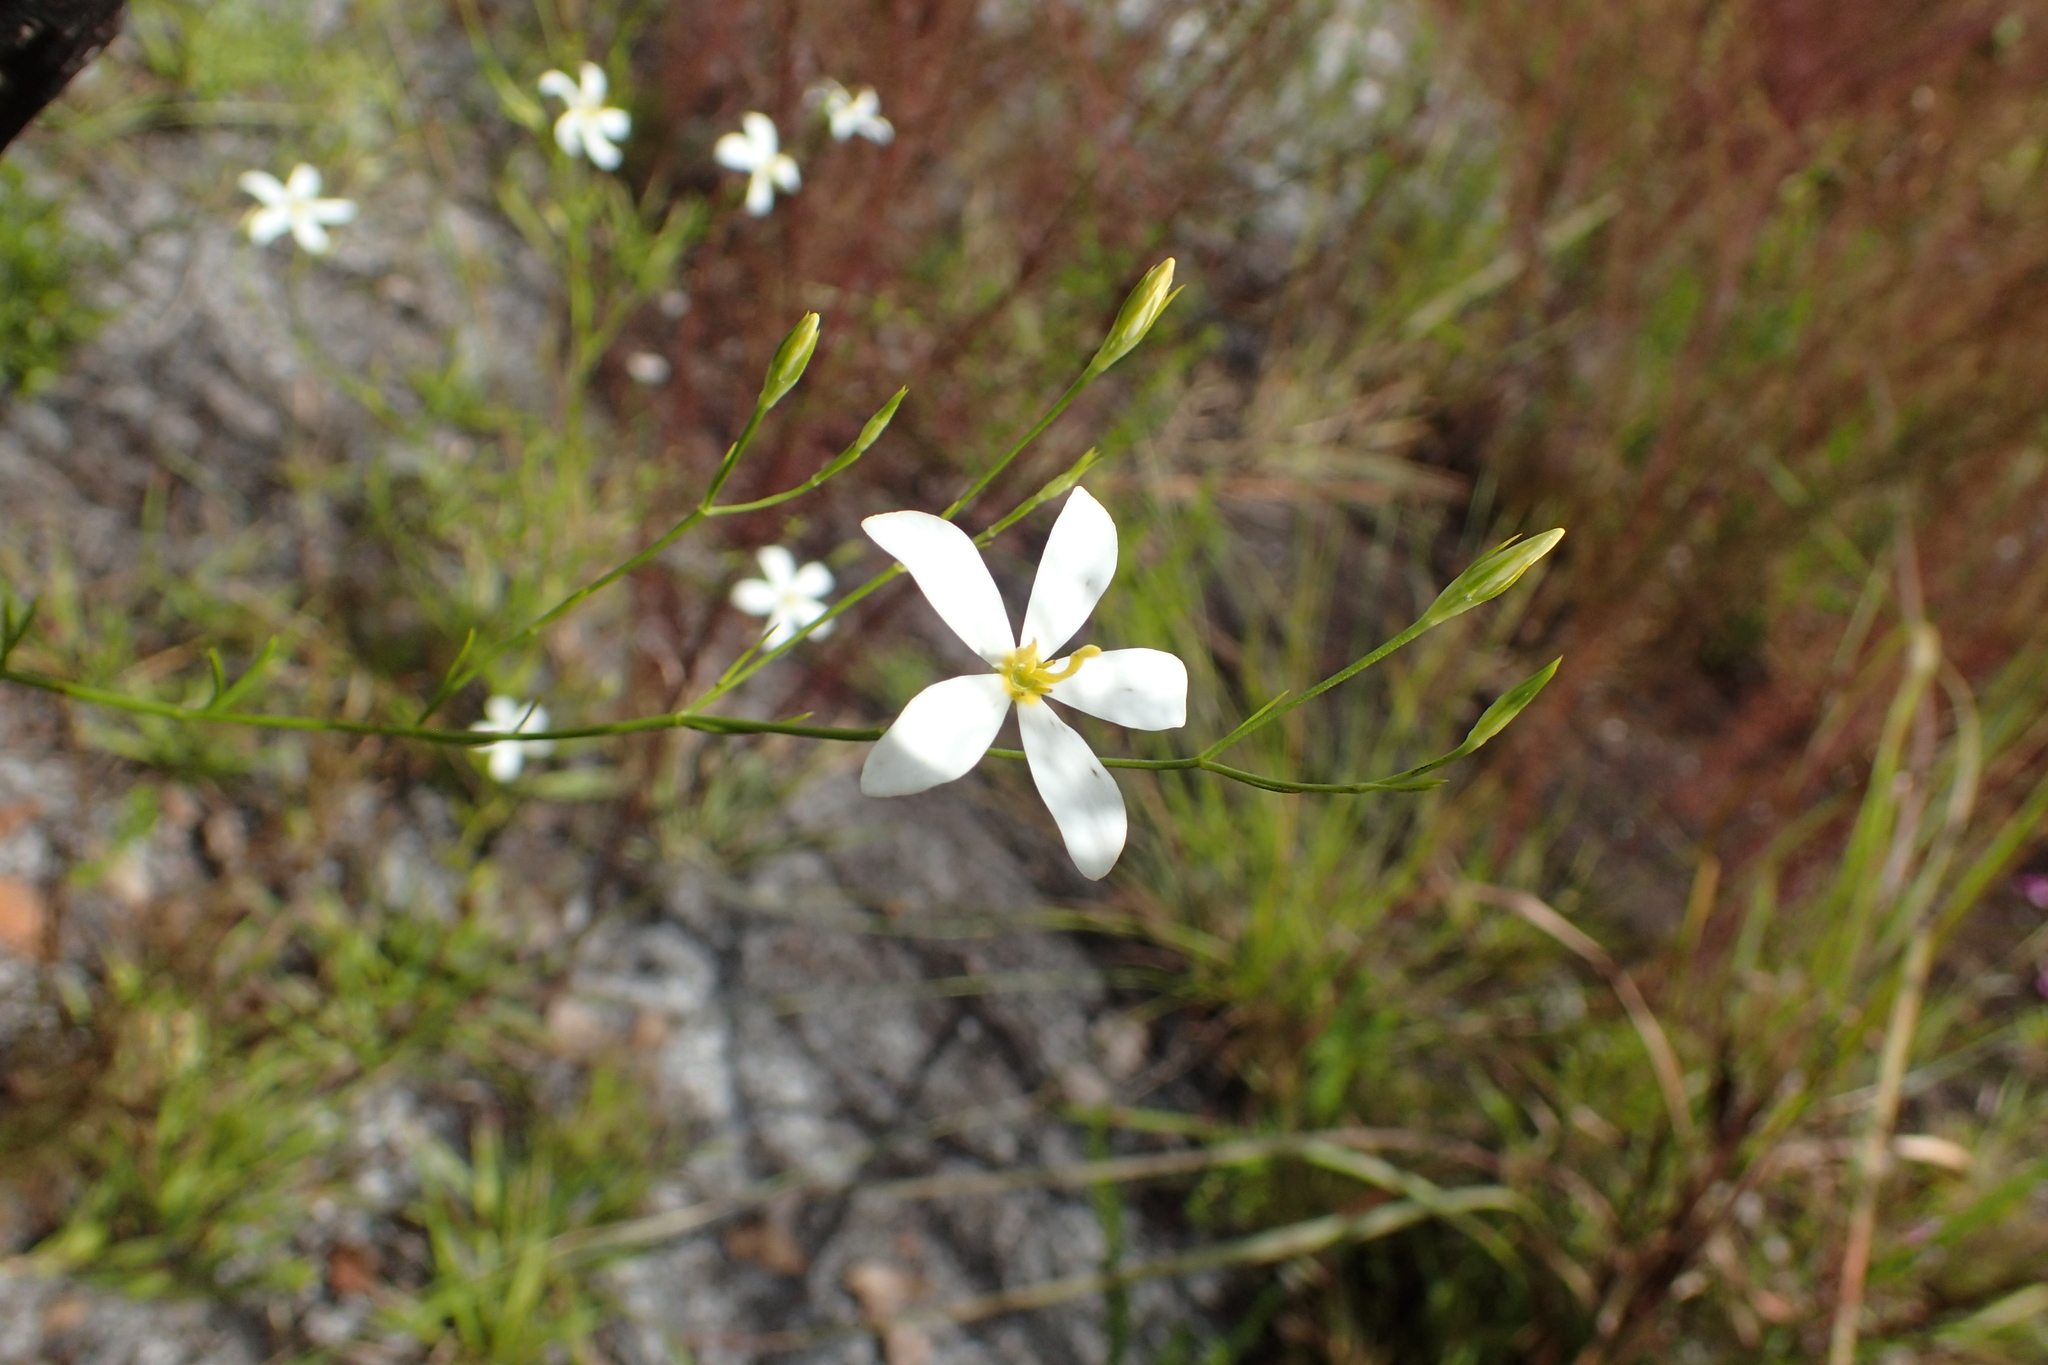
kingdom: Plantae
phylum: Tracheophyta
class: Magnoliopsida
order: Gentianales
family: Gentianaceae
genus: Sabatia
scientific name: Sabatia brevifolia
